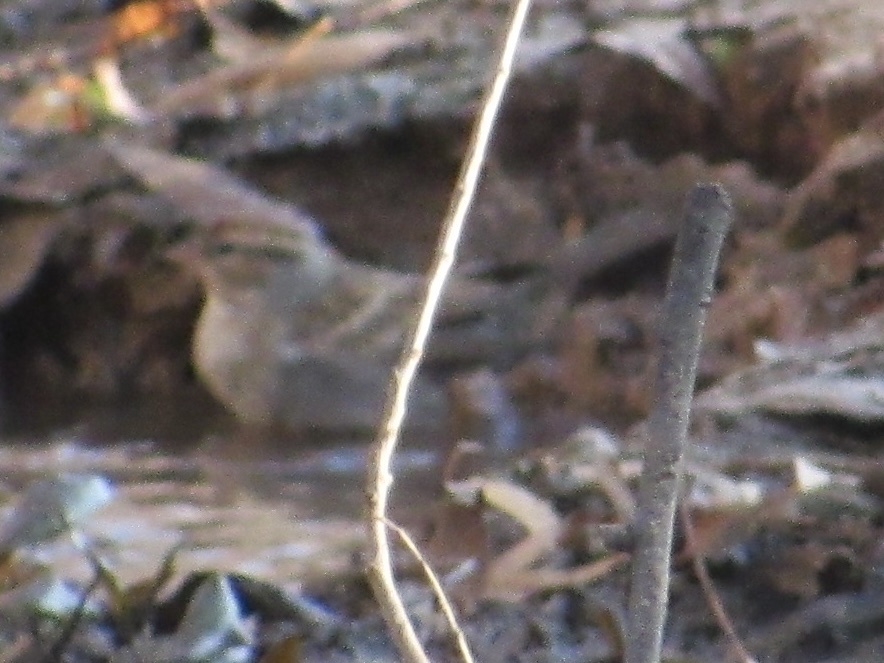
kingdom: Animalia
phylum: Chordata
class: Aves
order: Passeriformes
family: Passerellidae
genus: Spizella
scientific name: Spizella passerina
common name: Chipping sparrow
